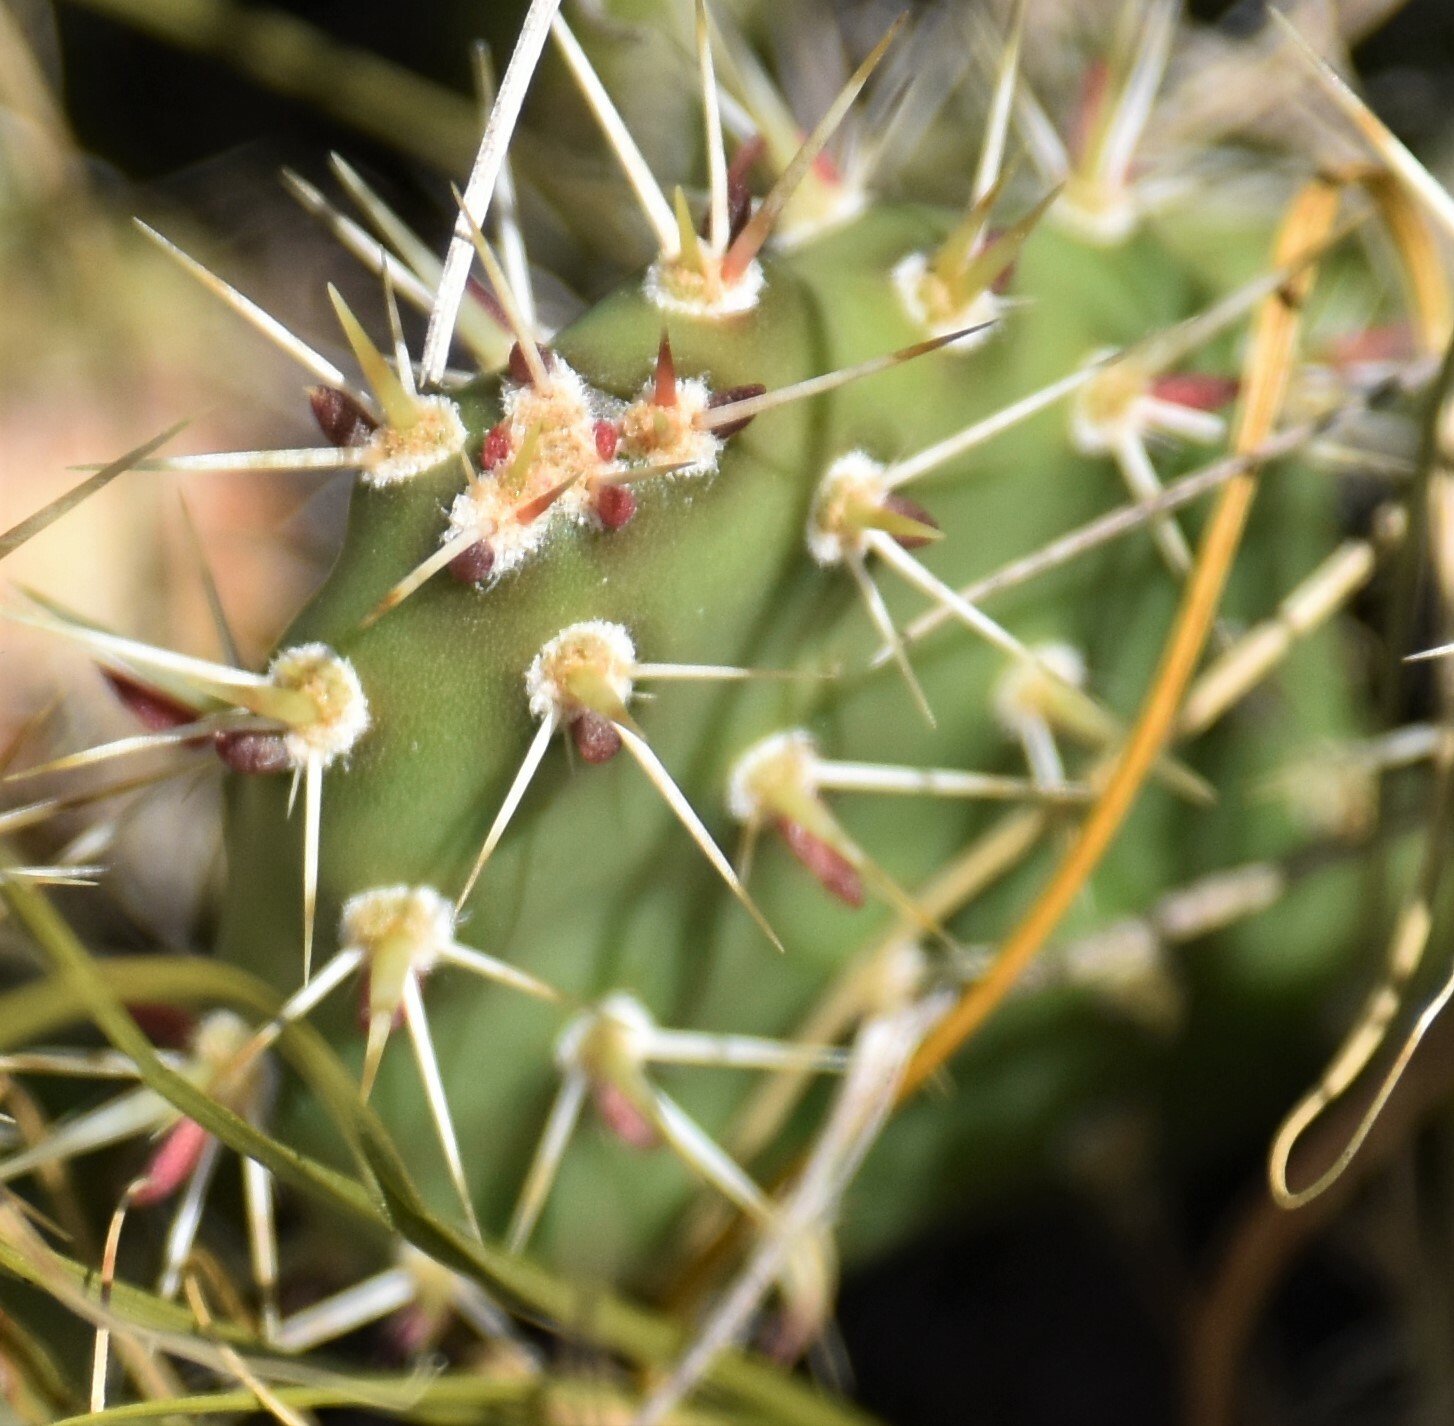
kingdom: Plantae
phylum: Tracheophyta
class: Magnoliopsida
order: Caryophyllales
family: Cactaceae
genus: Opuntia
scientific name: Opuntia fragilis
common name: Brittle cactus
